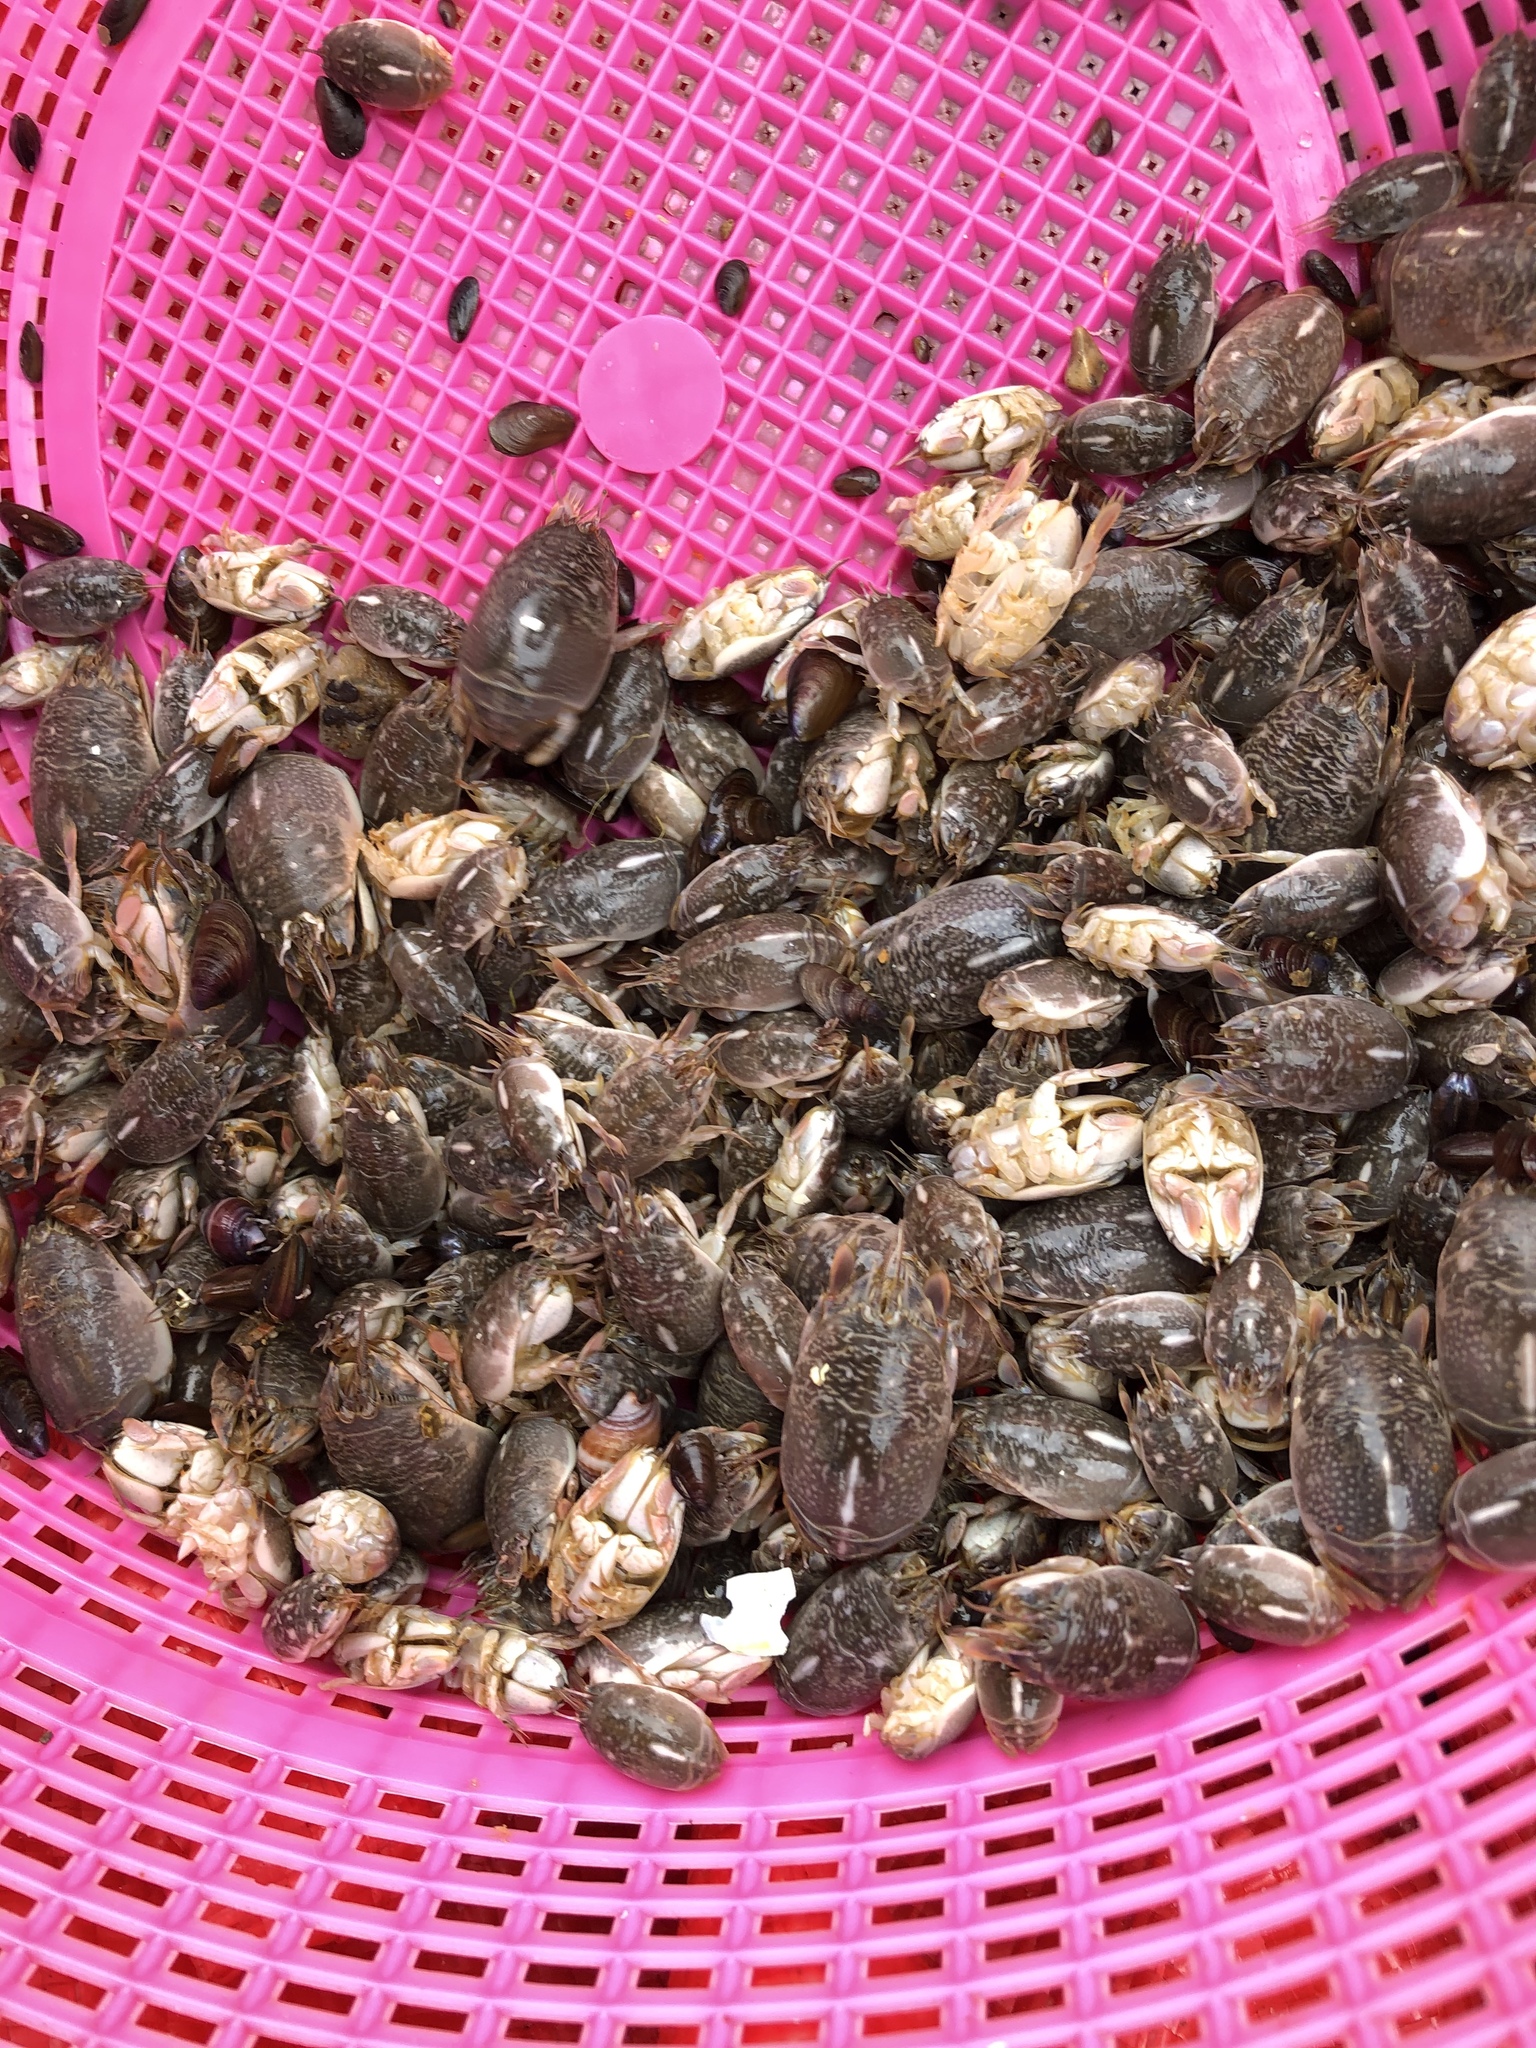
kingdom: Animalia
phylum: Arthropoda
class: Malacostraca
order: Decapoda
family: Hippidae
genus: Emerita
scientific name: Emerita analoga
